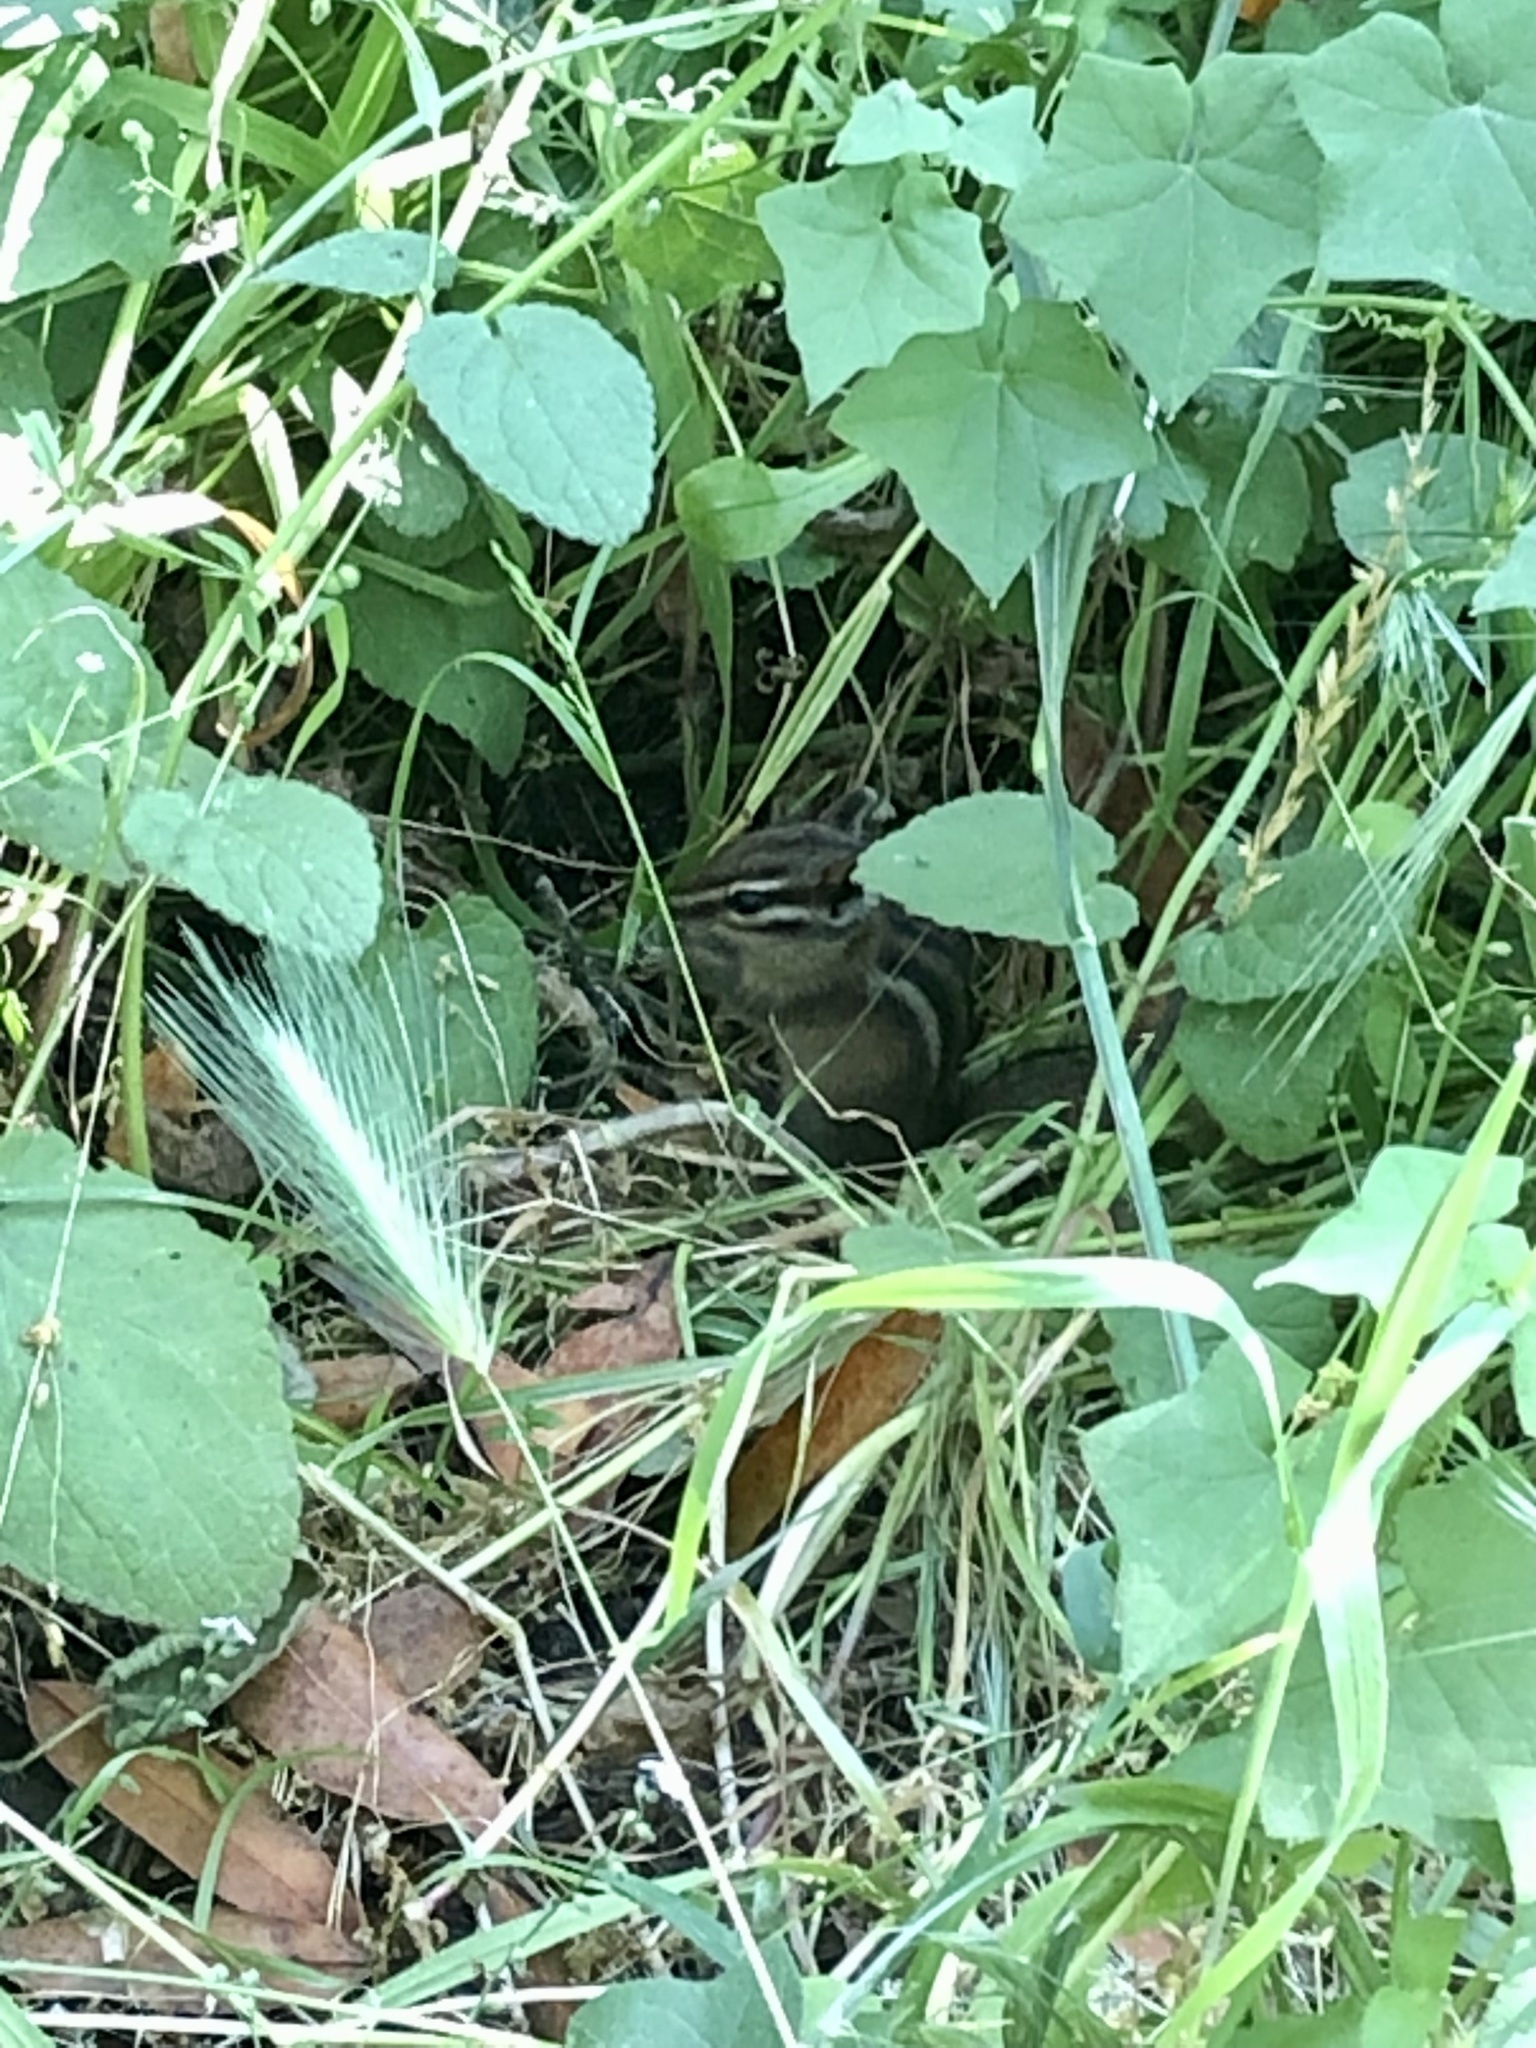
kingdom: Animalia
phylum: Chordata
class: Mammalia
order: Rodentia
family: Sciuridae
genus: Tamias
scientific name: Tamias sonomae
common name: Sonoma chipmunk
